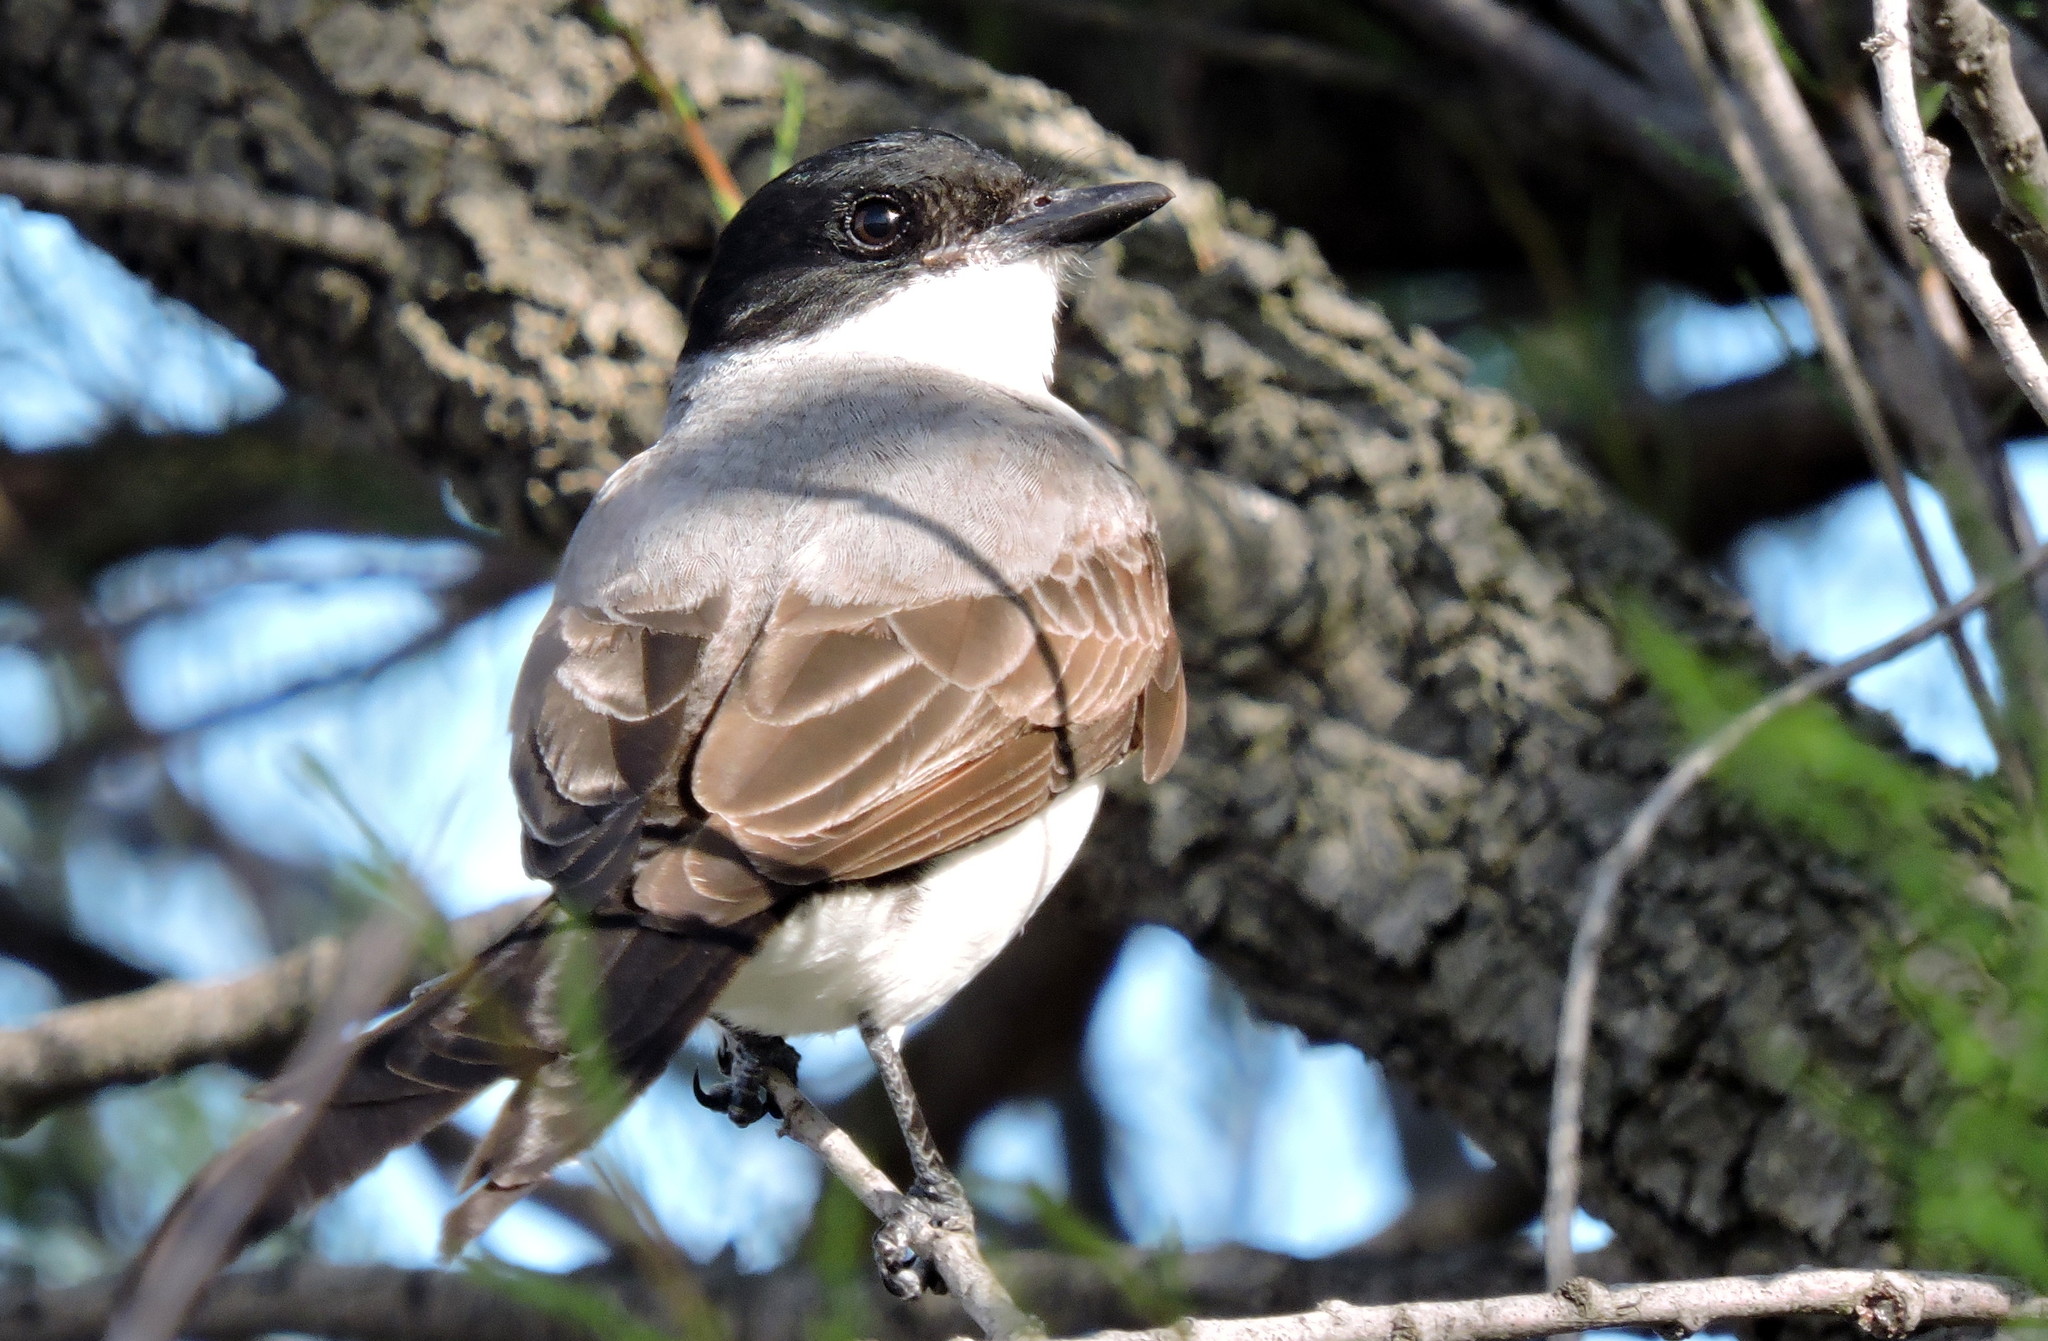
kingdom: Animalia
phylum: Chordata
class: Aves
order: Passeriformes
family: Tyrannidae
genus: Tyrannus
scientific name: Tyrannus savana
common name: Fork-tailed flycatcher
